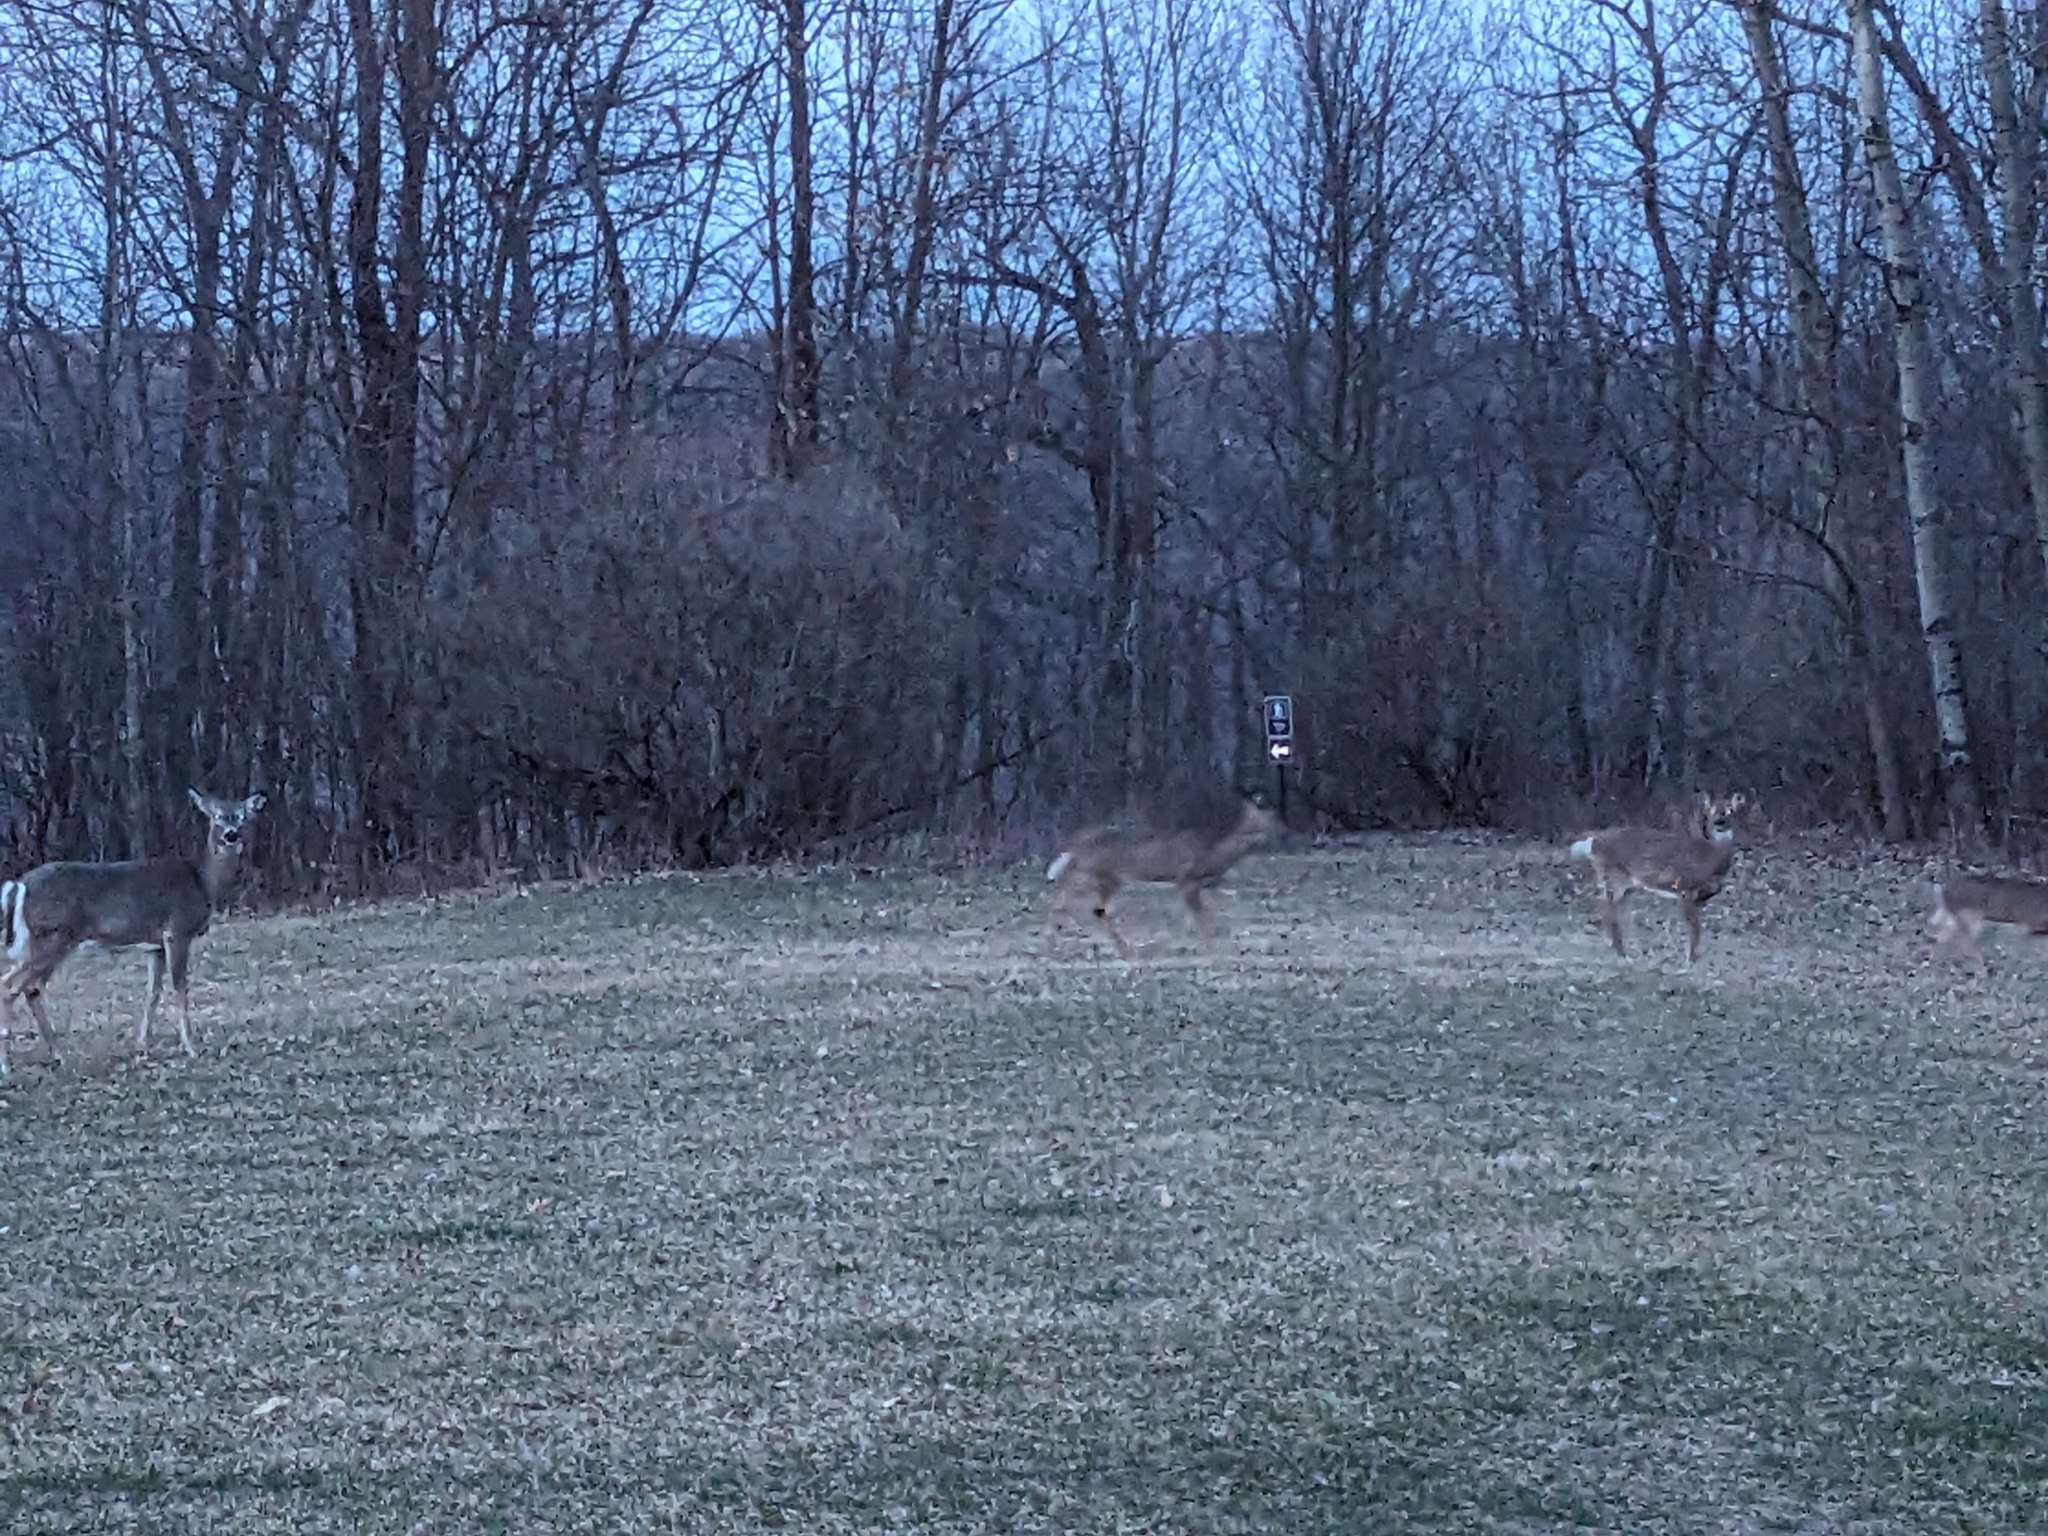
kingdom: Animalia
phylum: Chordata
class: Mammalia
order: Artiodactyla
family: Cervidae
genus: Odocoileus
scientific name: Odocoileus virginianus
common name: White-tailed deer
